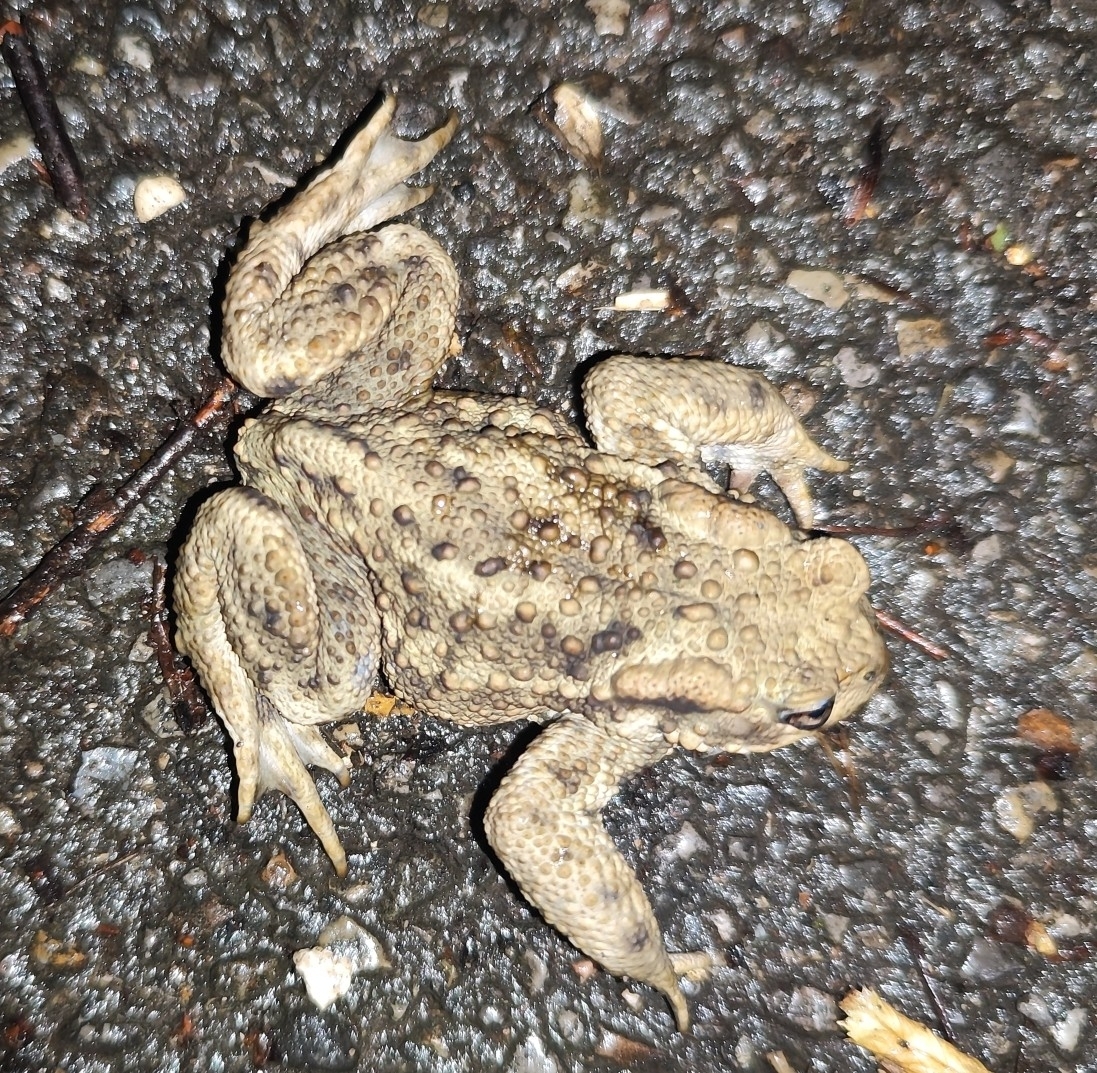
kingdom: Animalia
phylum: Chordata
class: Amphibia
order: Anura
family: Bufonidae
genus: Bufo
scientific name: Bufo bufo
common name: Common toad
